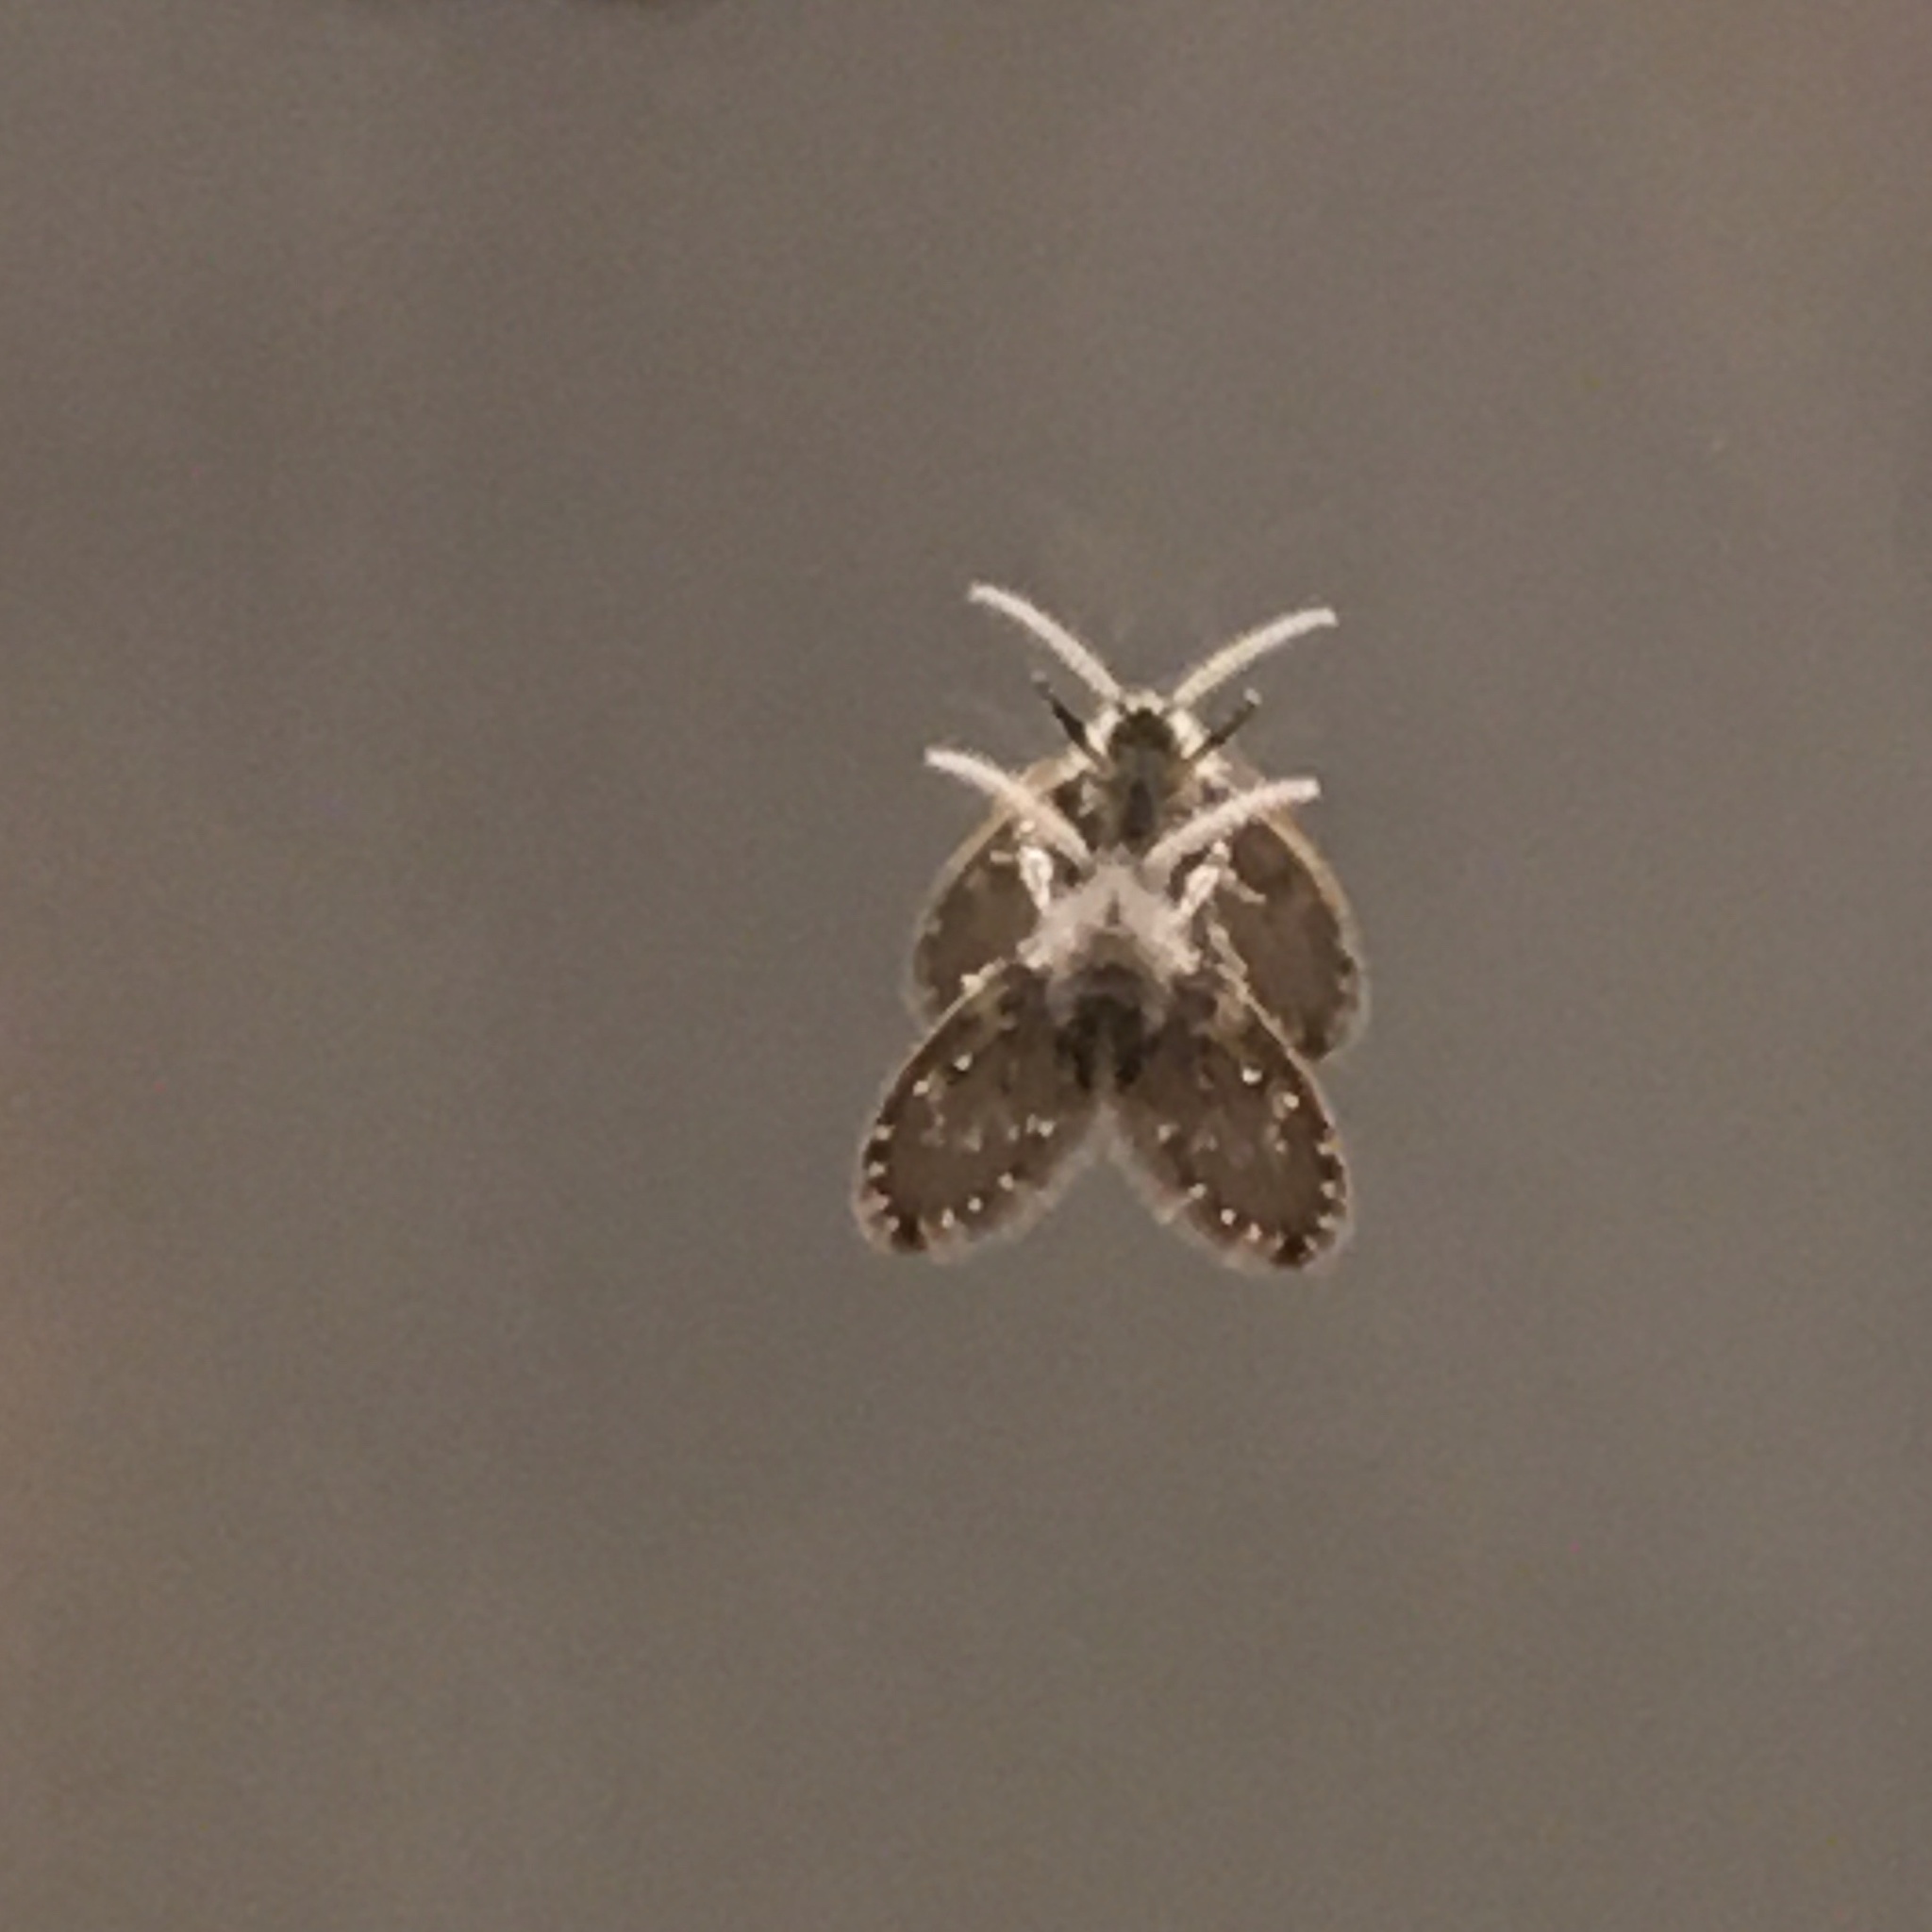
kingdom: Animalia
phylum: Arthropoda
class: Insecta
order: Diptera
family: Psychodidae
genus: Clogmia
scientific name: Clogmia albipunctatus
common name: White-spotted moth fly
